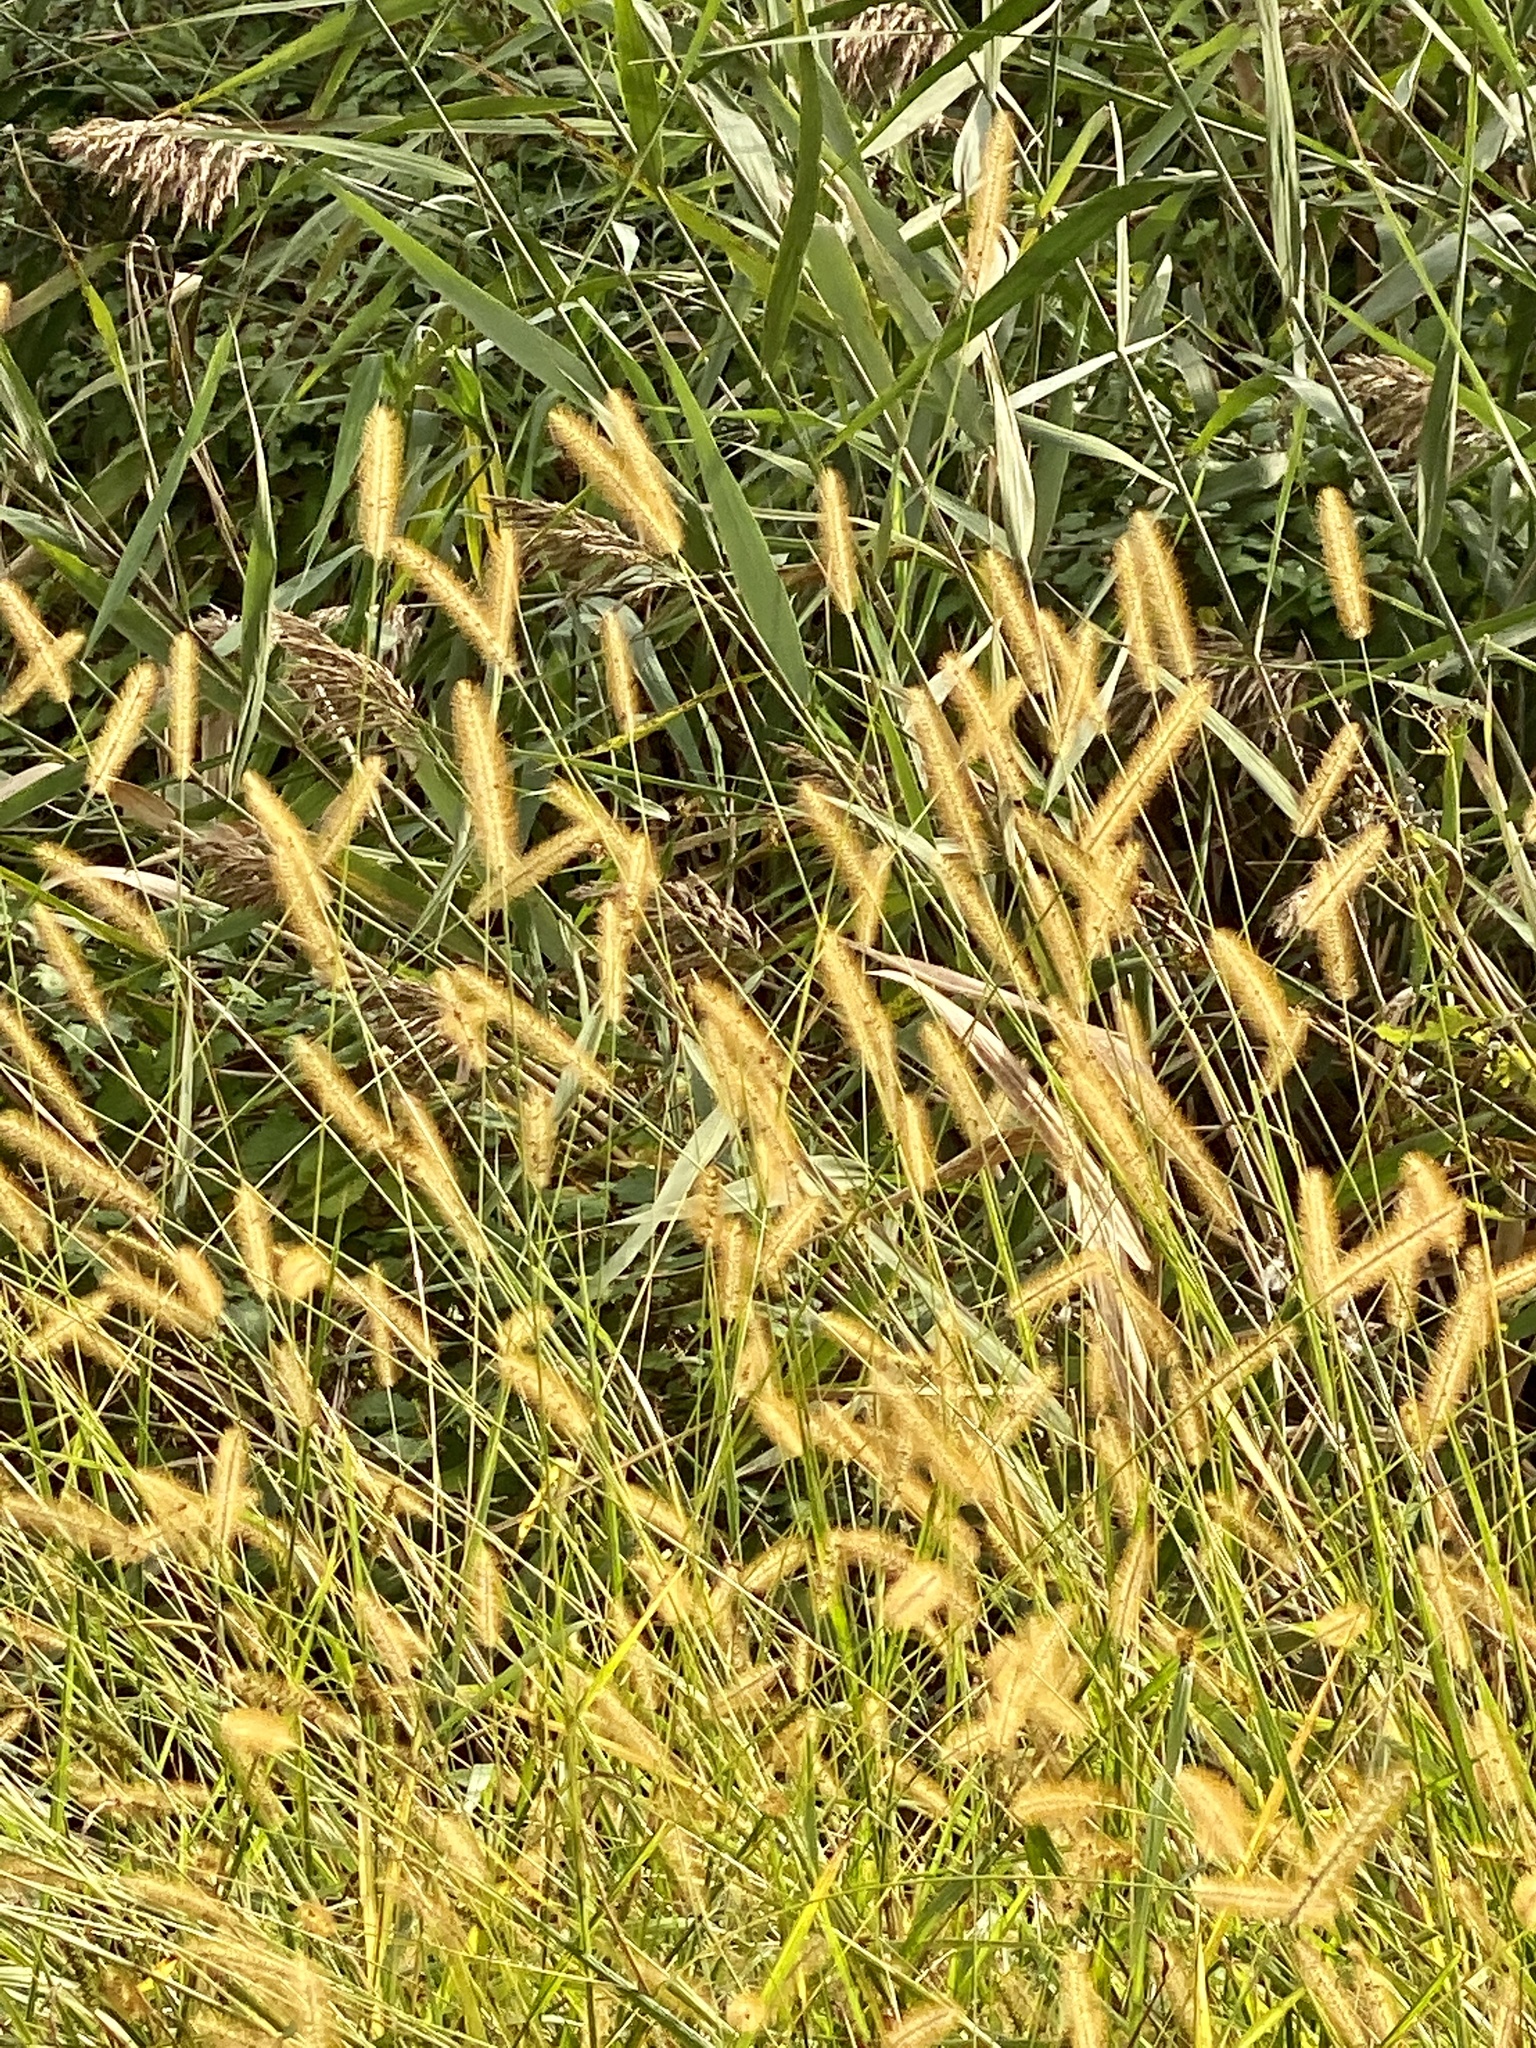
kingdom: Plantae
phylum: Tracheophyta
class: Liliopsida
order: Poales
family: Poaceae
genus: Setaria
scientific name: Setaria pumila
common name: Yellow bristle-grass
